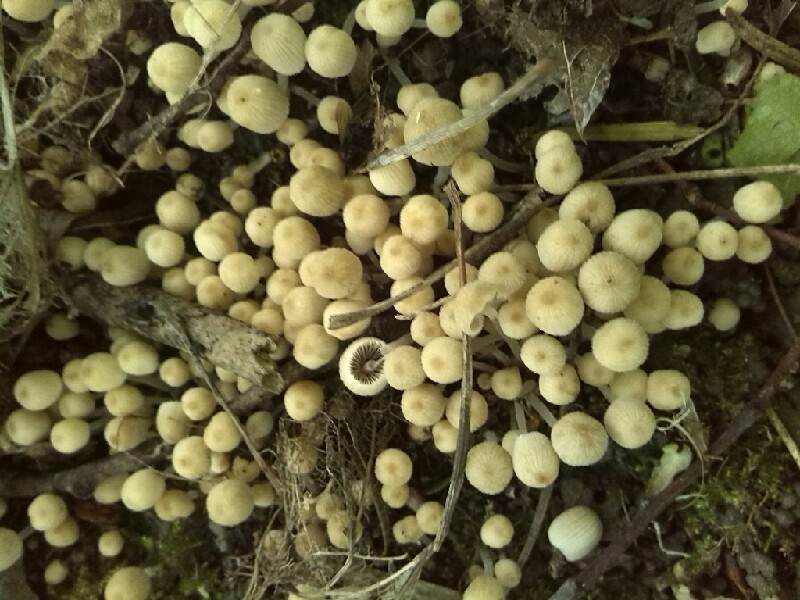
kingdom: Fungi
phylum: Basidiomycota
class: Agaricomycetes
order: Agaricales
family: Psathyrellaceae
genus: Coprinellus
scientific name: Coprinellus disseminatus
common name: Fairies' bonnets
